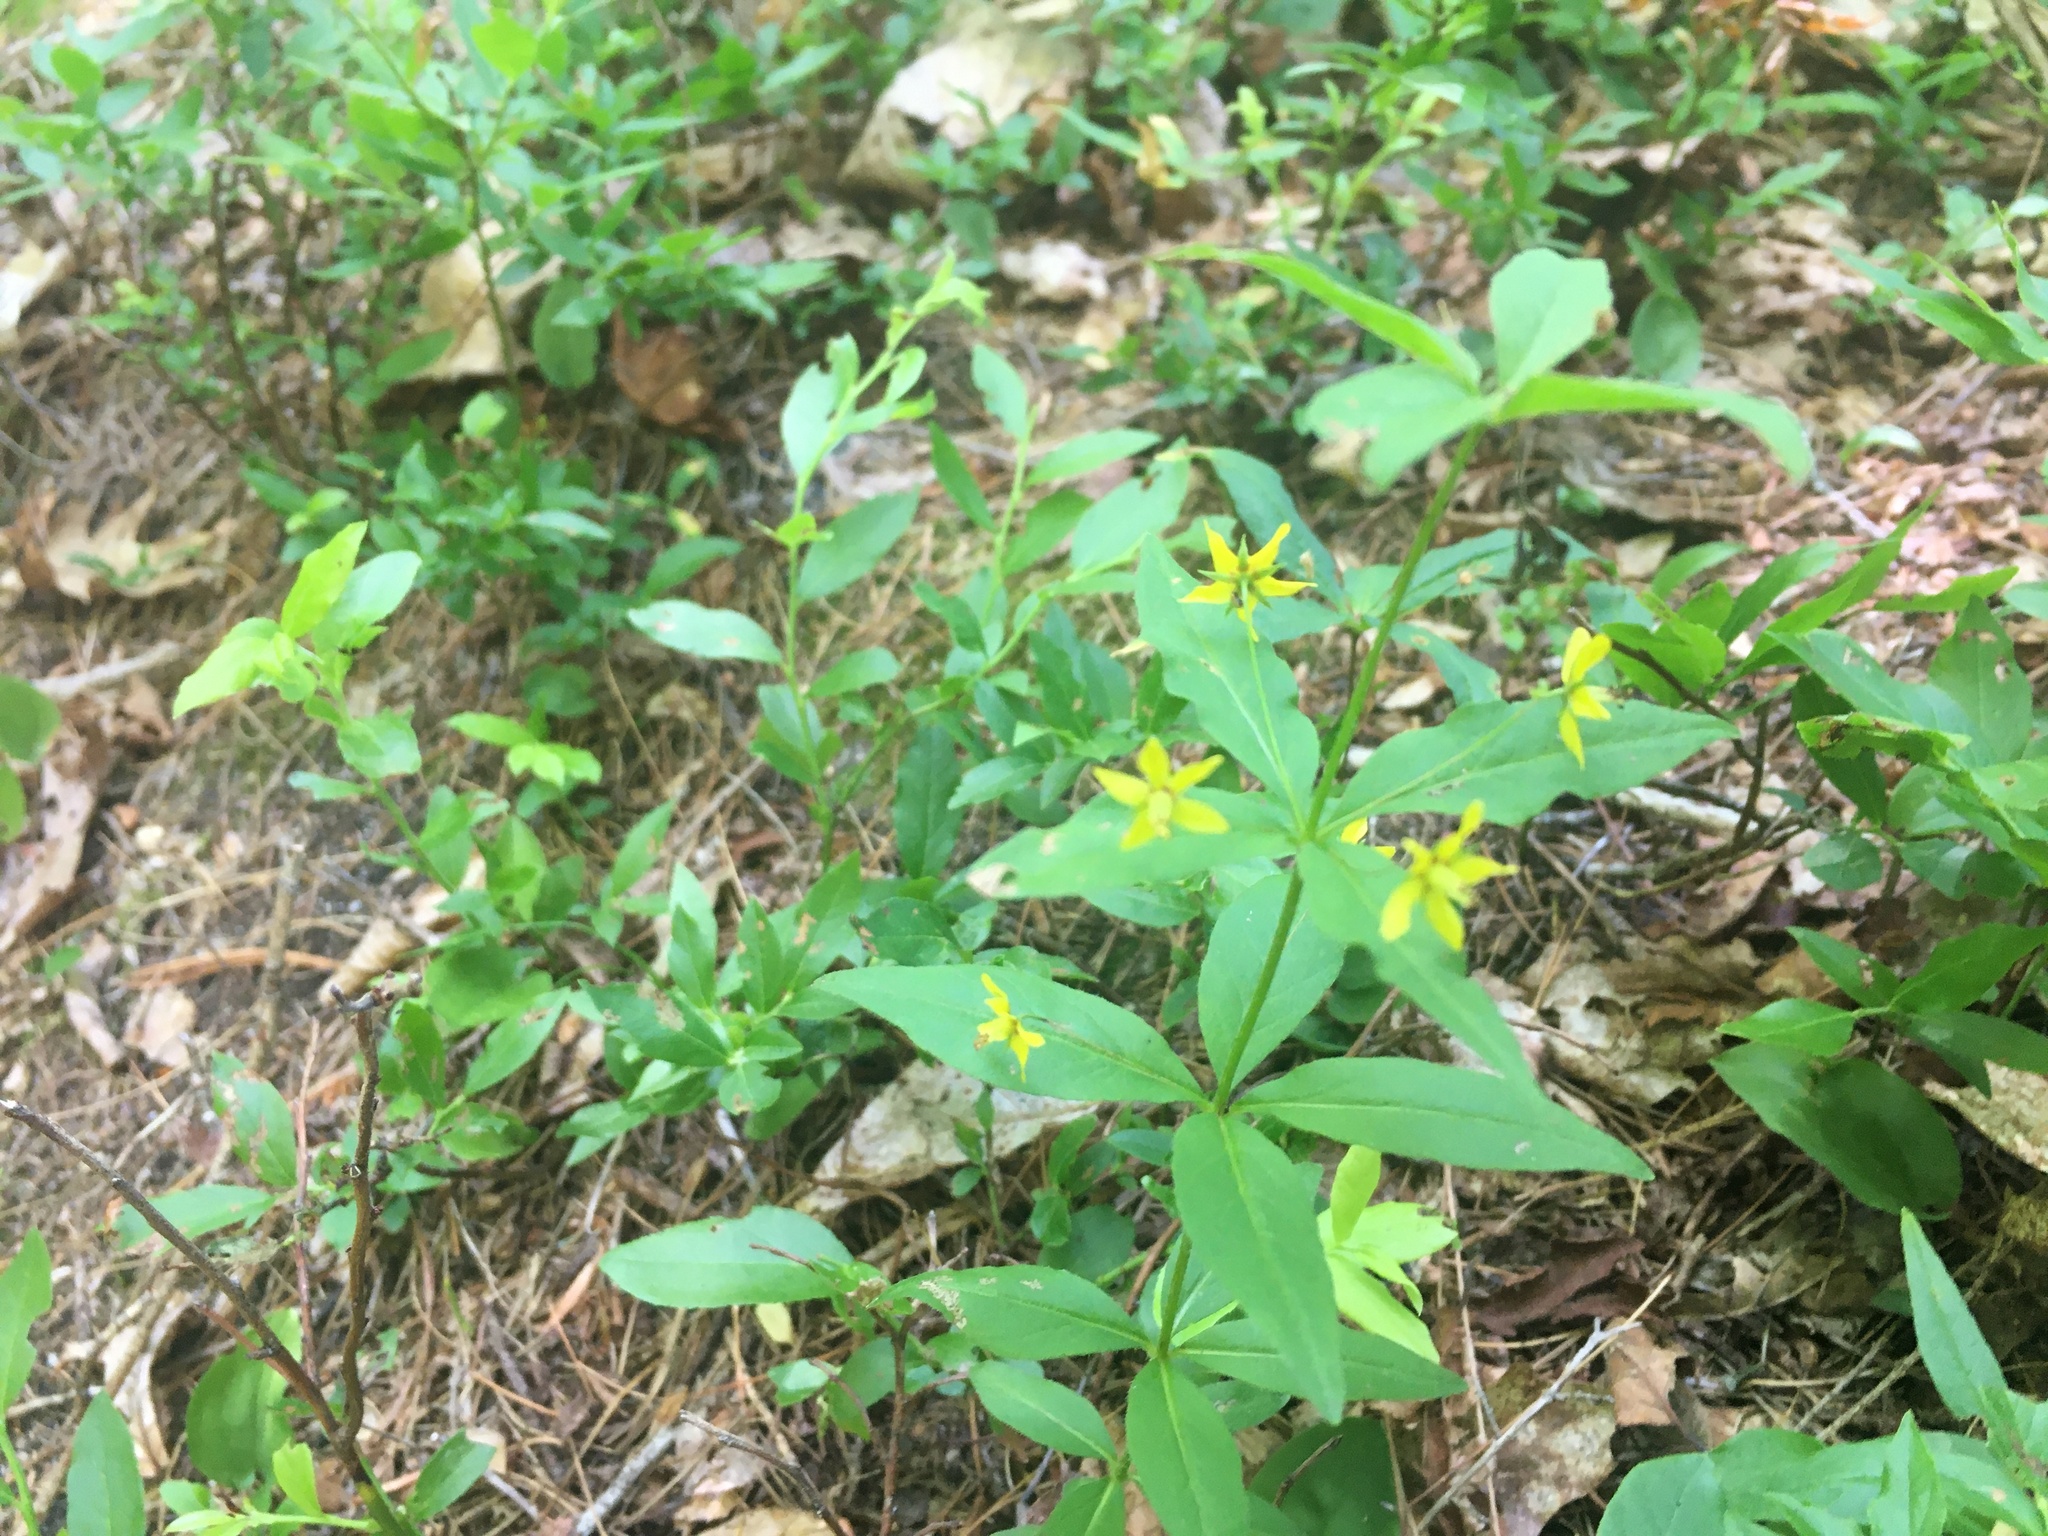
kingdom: Plantae
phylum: Tracheophyta
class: Magnoliopsida
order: Ericales
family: Primulaceae
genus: Lysimachia
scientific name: Lysimachia quadrifolia
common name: Whorled loosestrife
